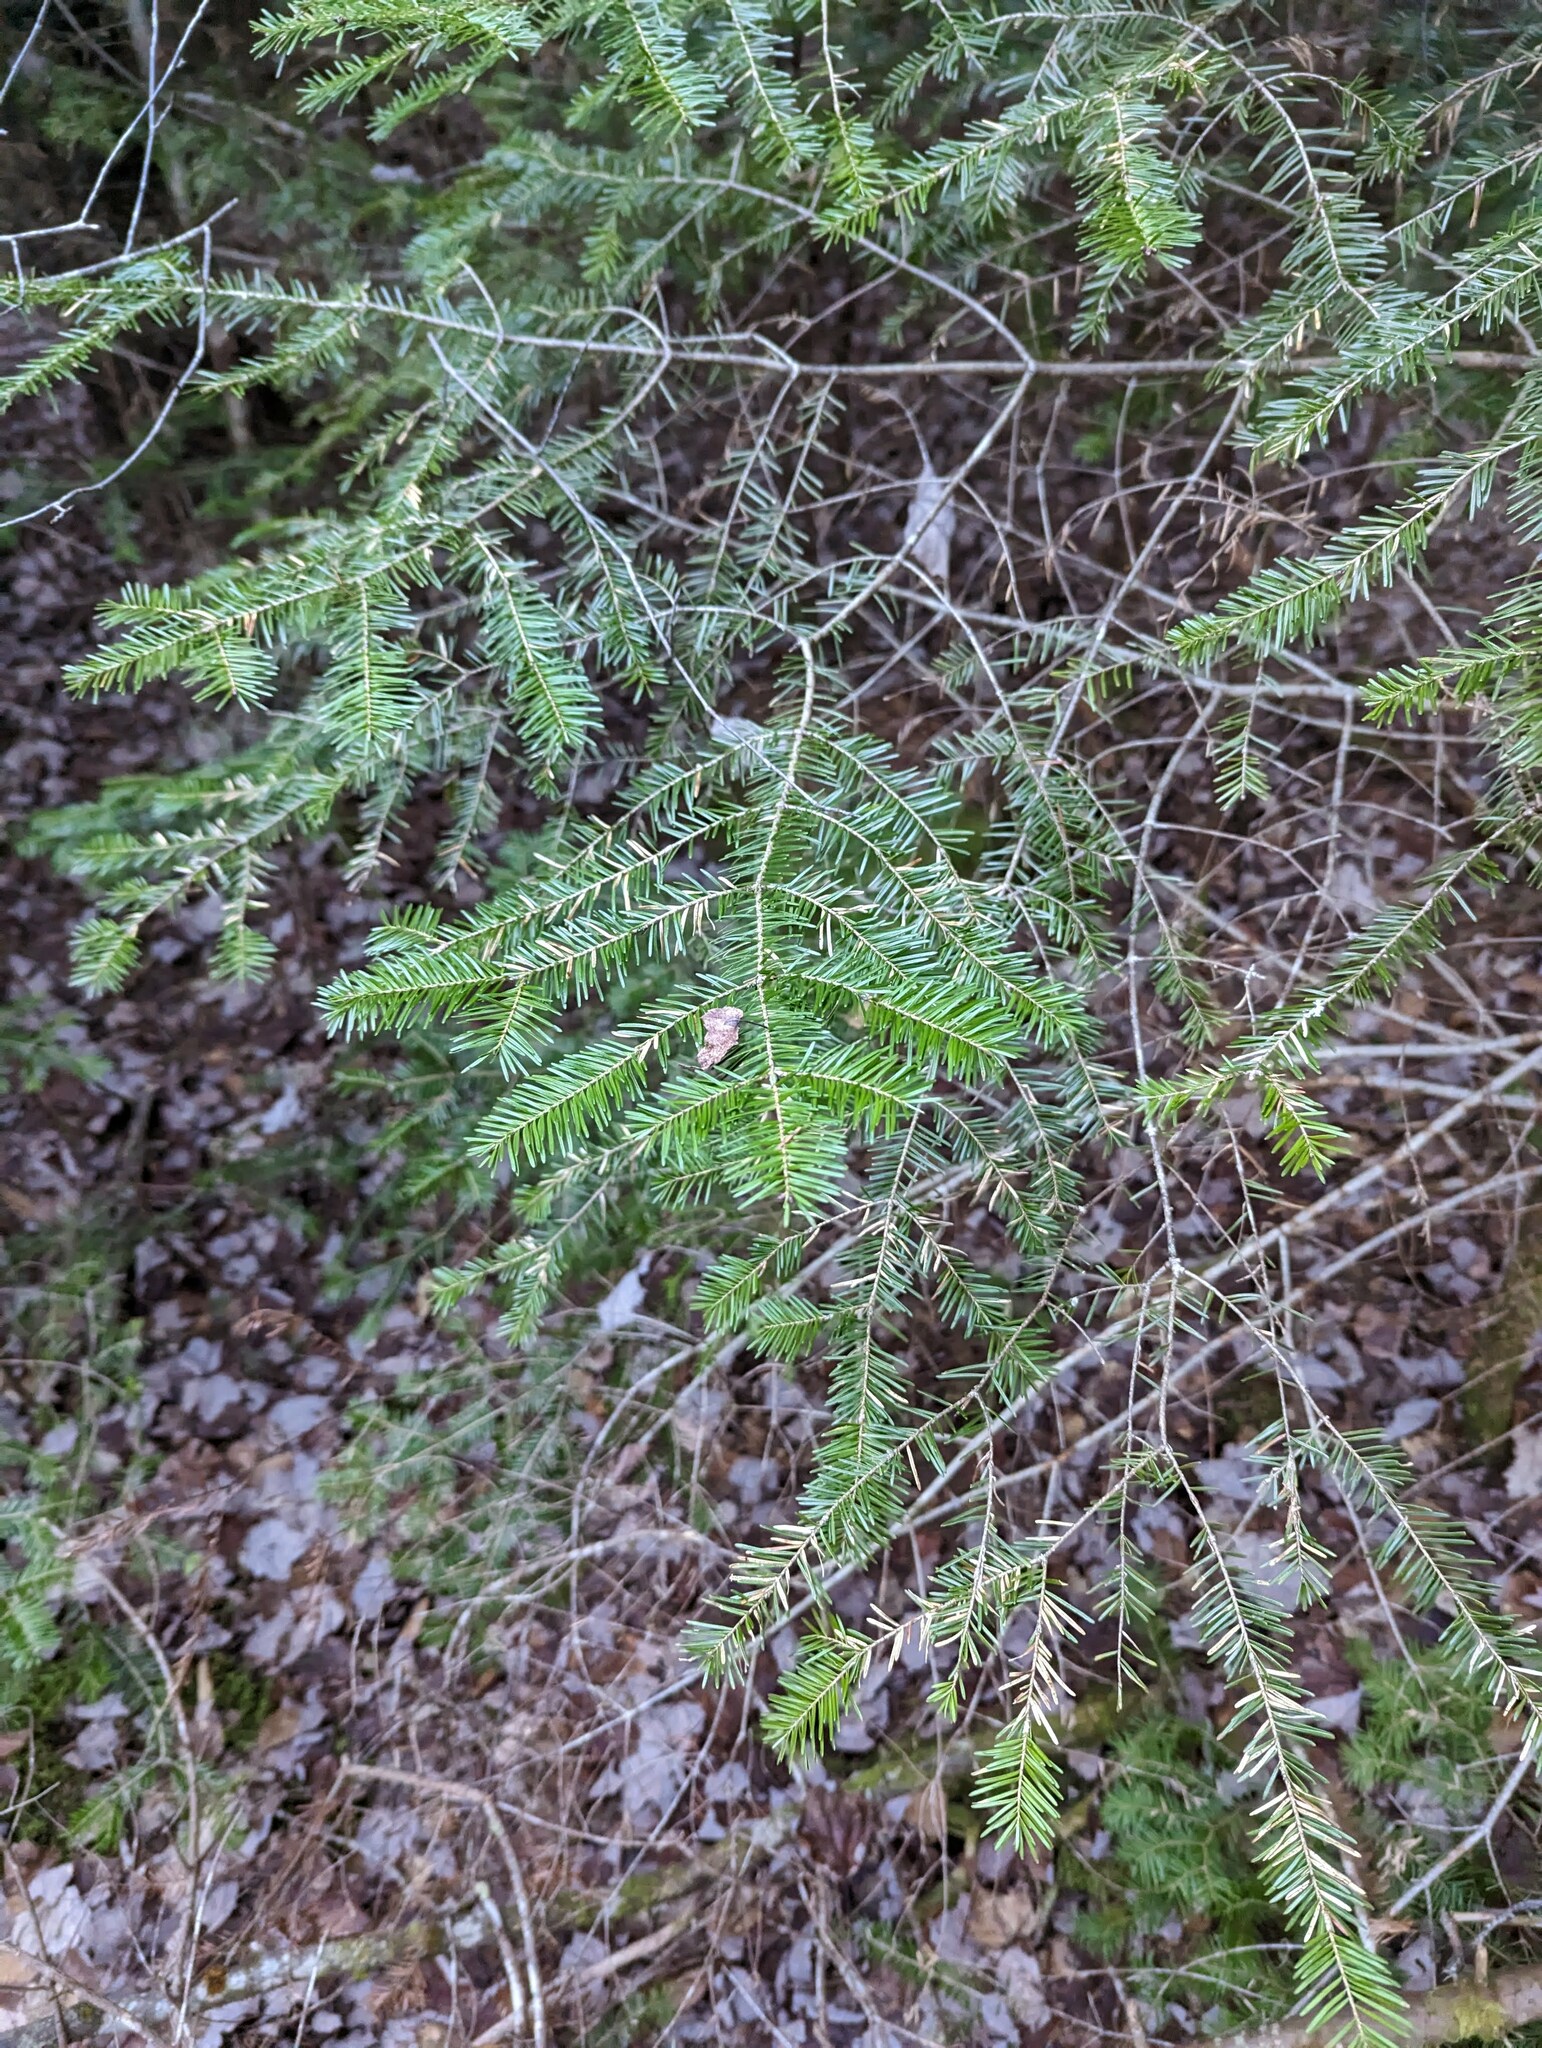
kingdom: Plantae
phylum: Tracheophyta
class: Pinopsida
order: Pinales
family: Pinaceae
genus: Abies
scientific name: Abies balsamea
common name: Balsam fir
